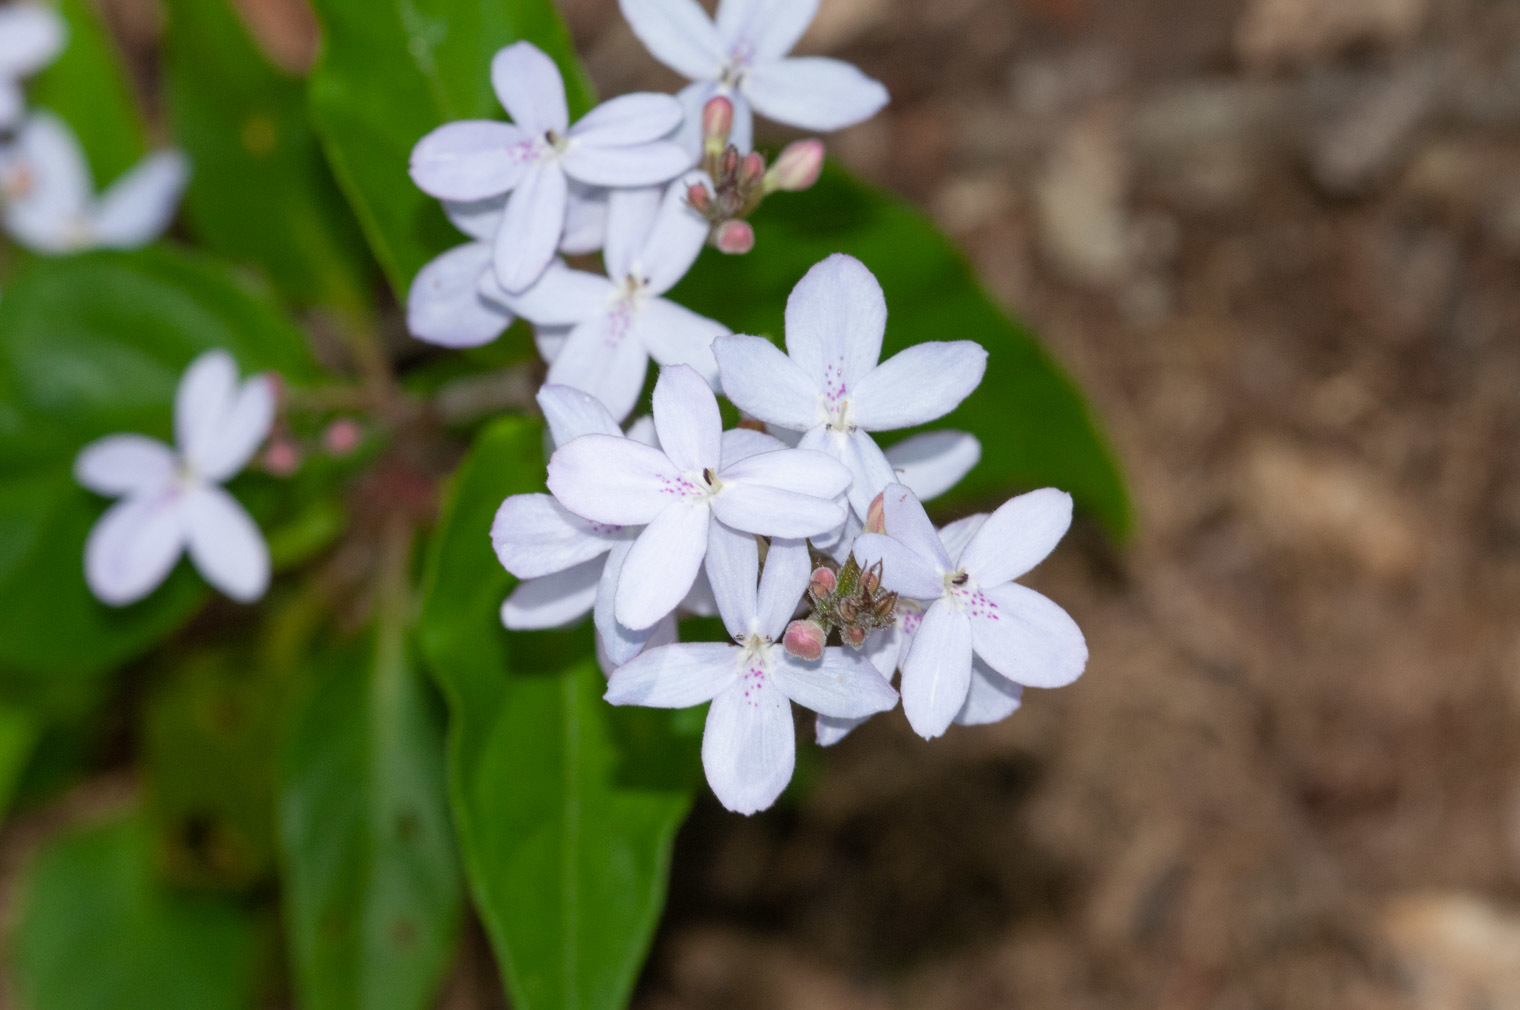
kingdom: Plantae
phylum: Tracheophyta
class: Magnoliopsida
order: Lamiales
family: Acanthaceae
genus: Pseuderanthemum
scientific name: Pseuderanthemum variabile
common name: Night and afternoon
